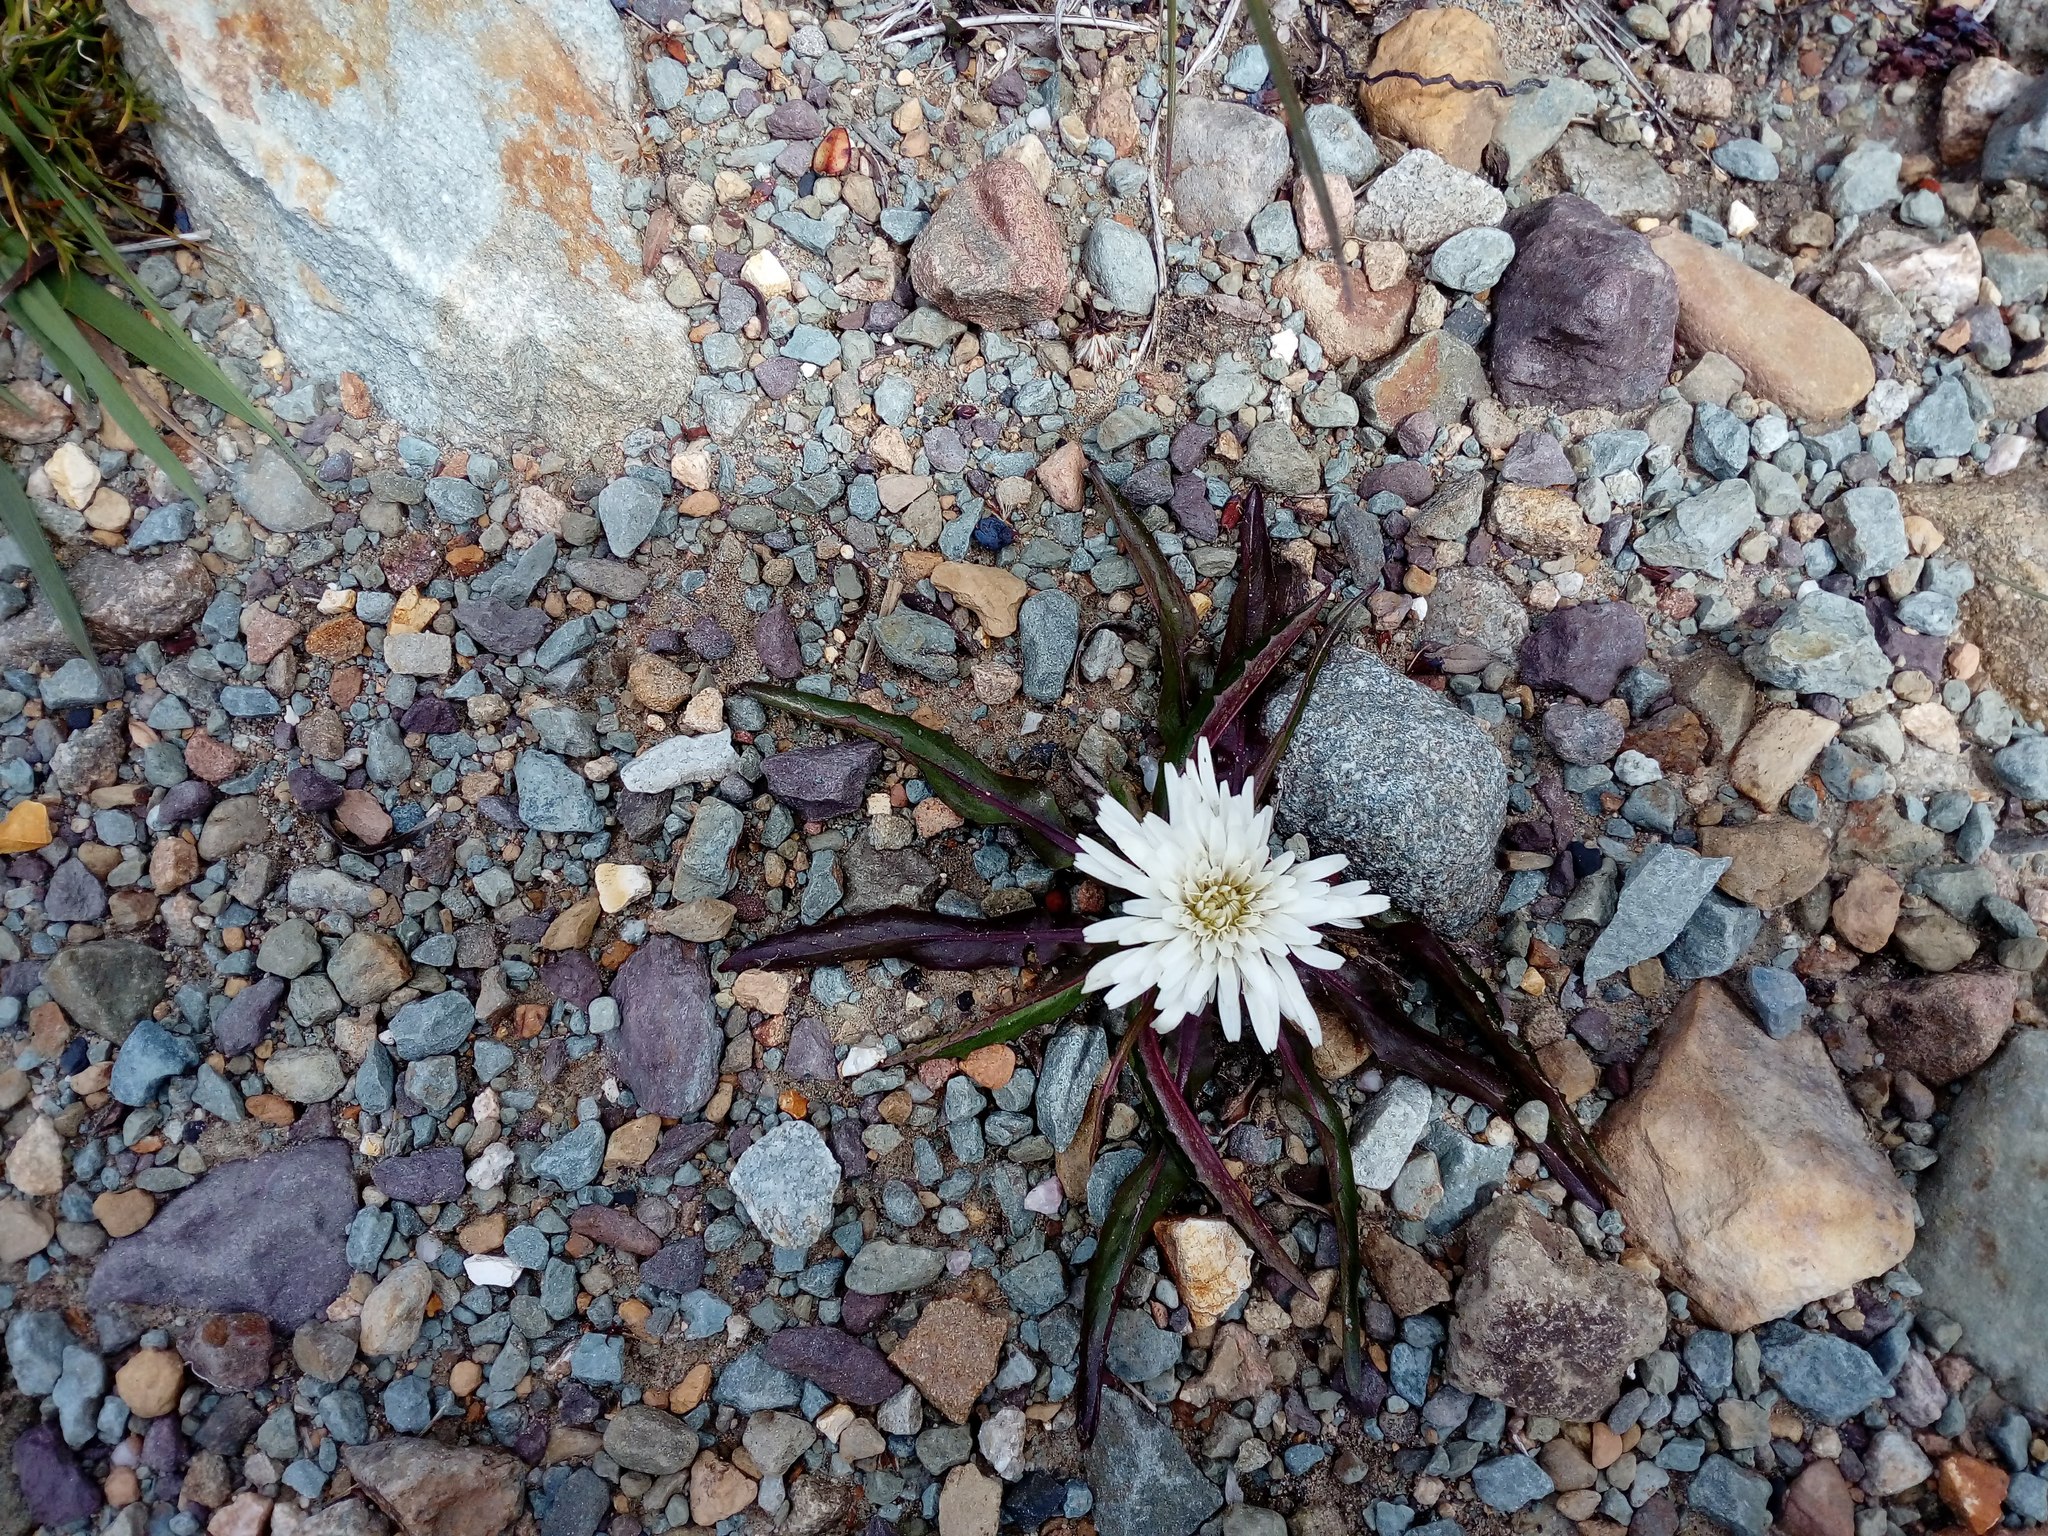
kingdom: Plantae
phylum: Tracheophyta
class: Magnoliopsida
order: Asterales
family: Asteraceae
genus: Hypochaeris
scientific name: Hypochaeris sessiliflora
